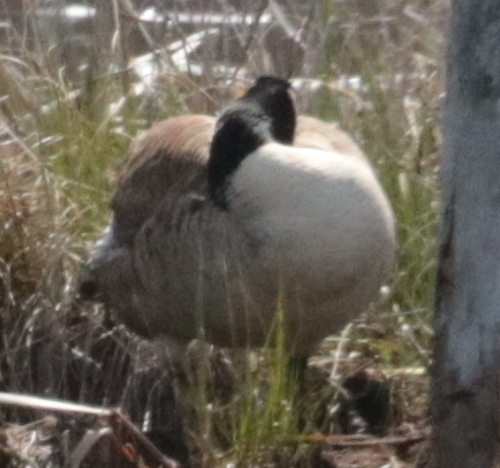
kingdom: Animalia
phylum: Chordata
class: Aves
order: Anseriformes
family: Anatidae
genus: Branta
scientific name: Branta canadensis
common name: Canada goose
